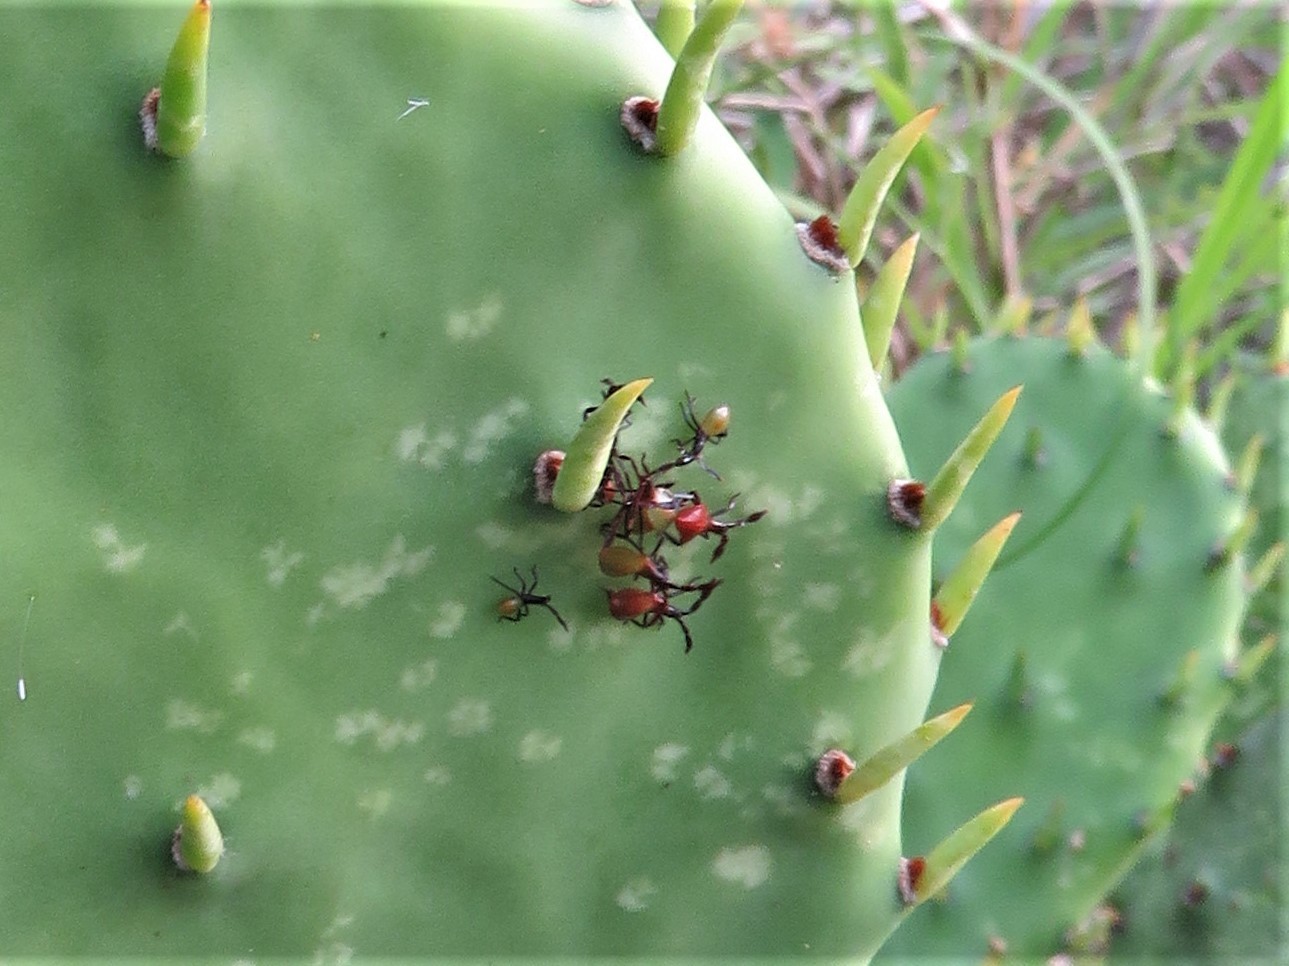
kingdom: Animalia
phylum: Arthropoda
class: Insecta
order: Hemiptera
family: Coreidae
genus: Chelinidea
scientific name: Chelinidea vittiger
